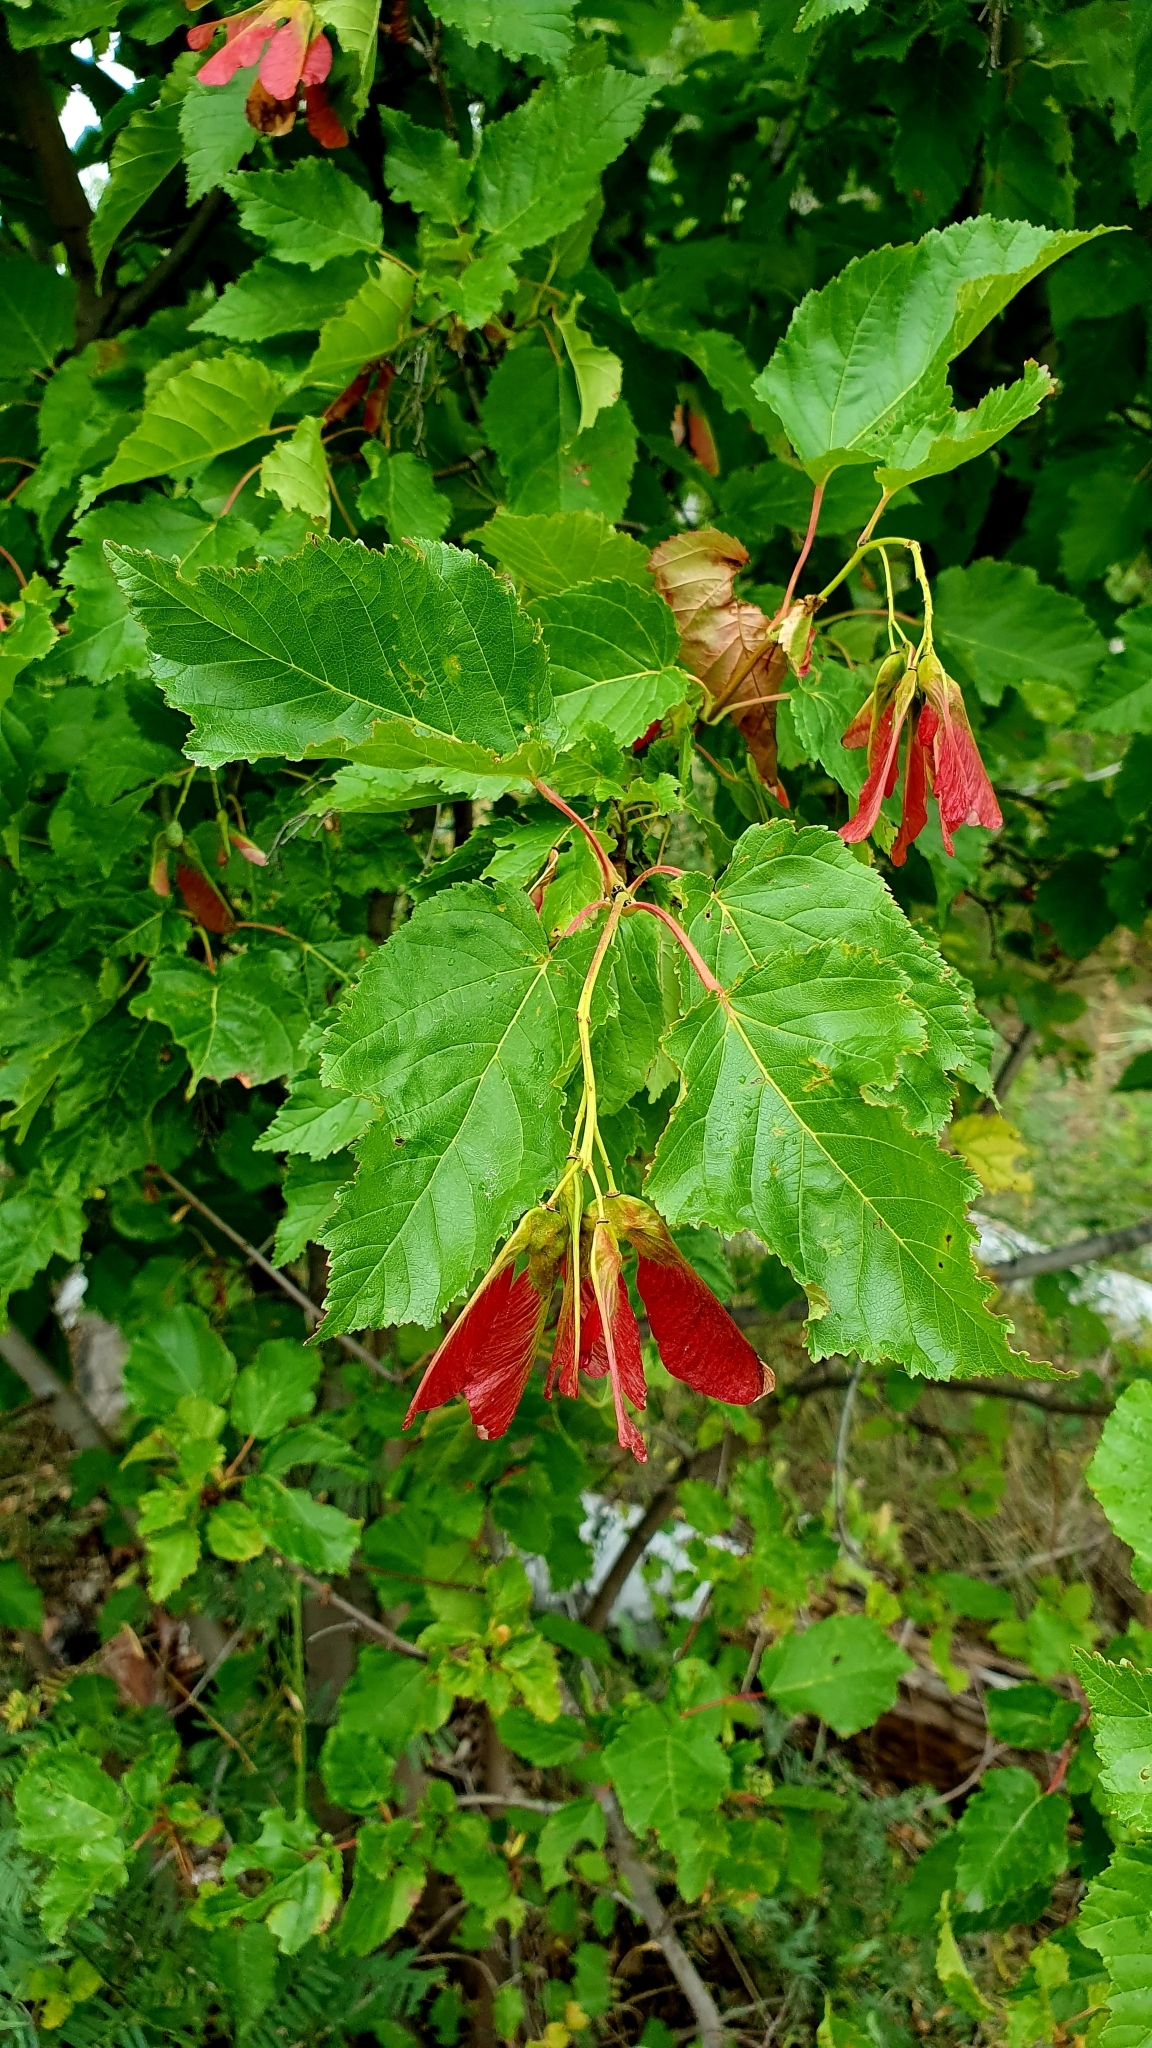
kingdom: Plantae
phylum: Tracheophyta
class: Magnoliopsida
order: Sapindales
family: Sapindaceae
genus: Acer
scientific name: Acer tataricum
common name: Tartar maple
